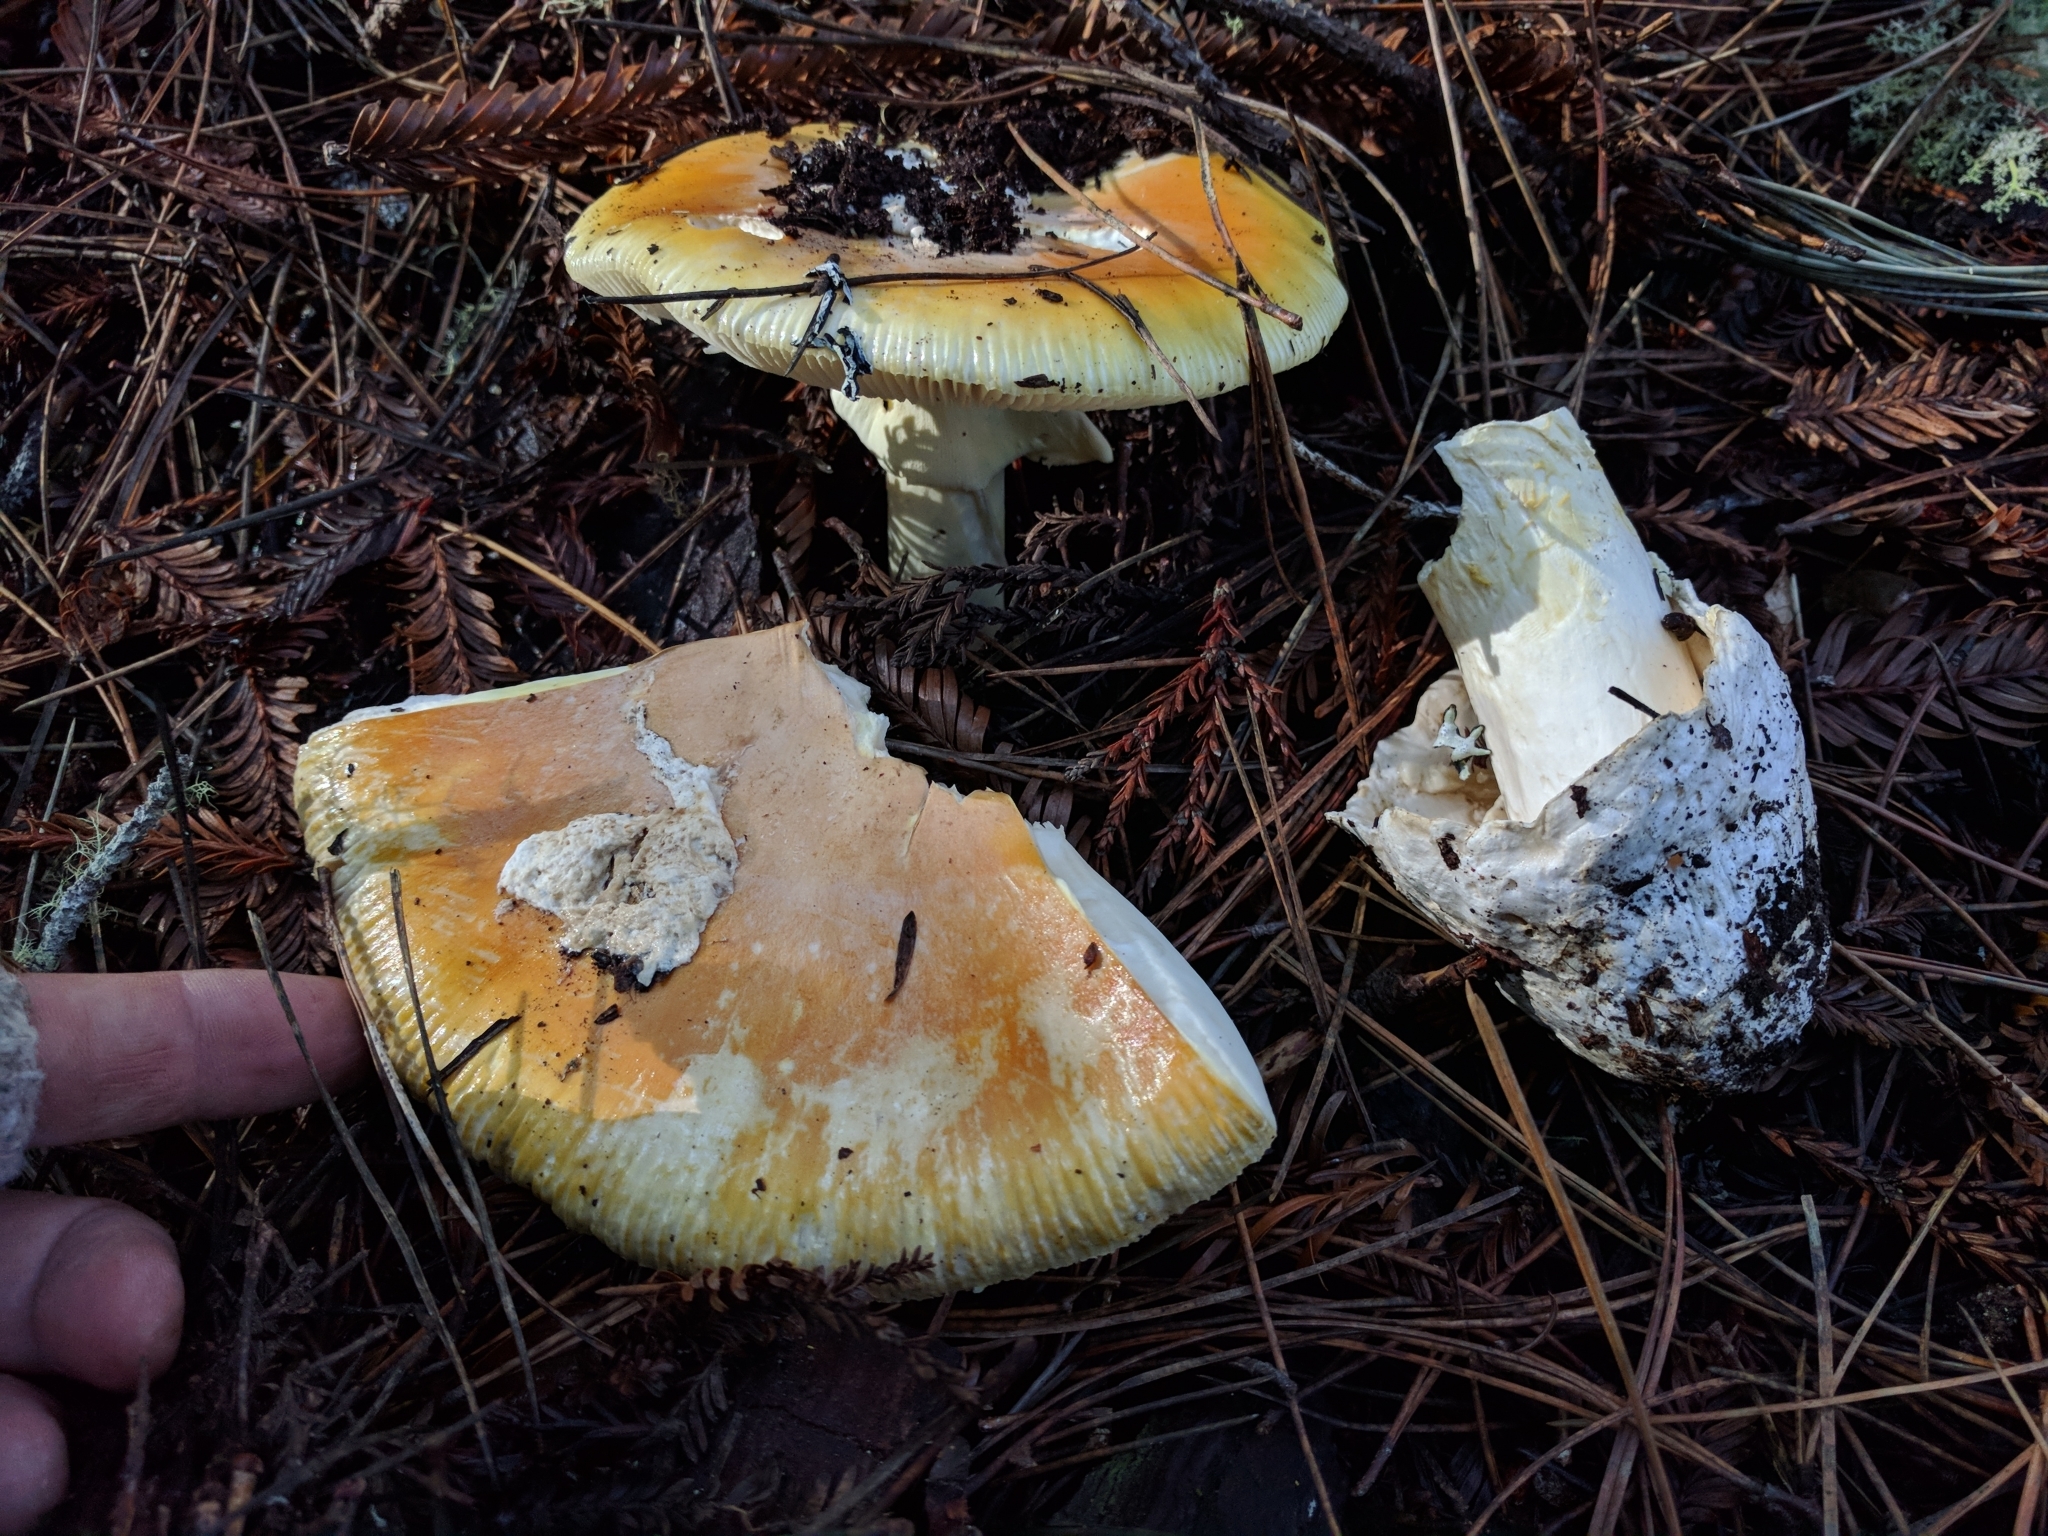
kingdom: Fungi
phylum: Basidiomycota
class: Agaricomycetes
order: Agaricales
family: Amanitaceae
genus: Amanita
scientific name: Amanita calyptroderma
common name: Coccora
